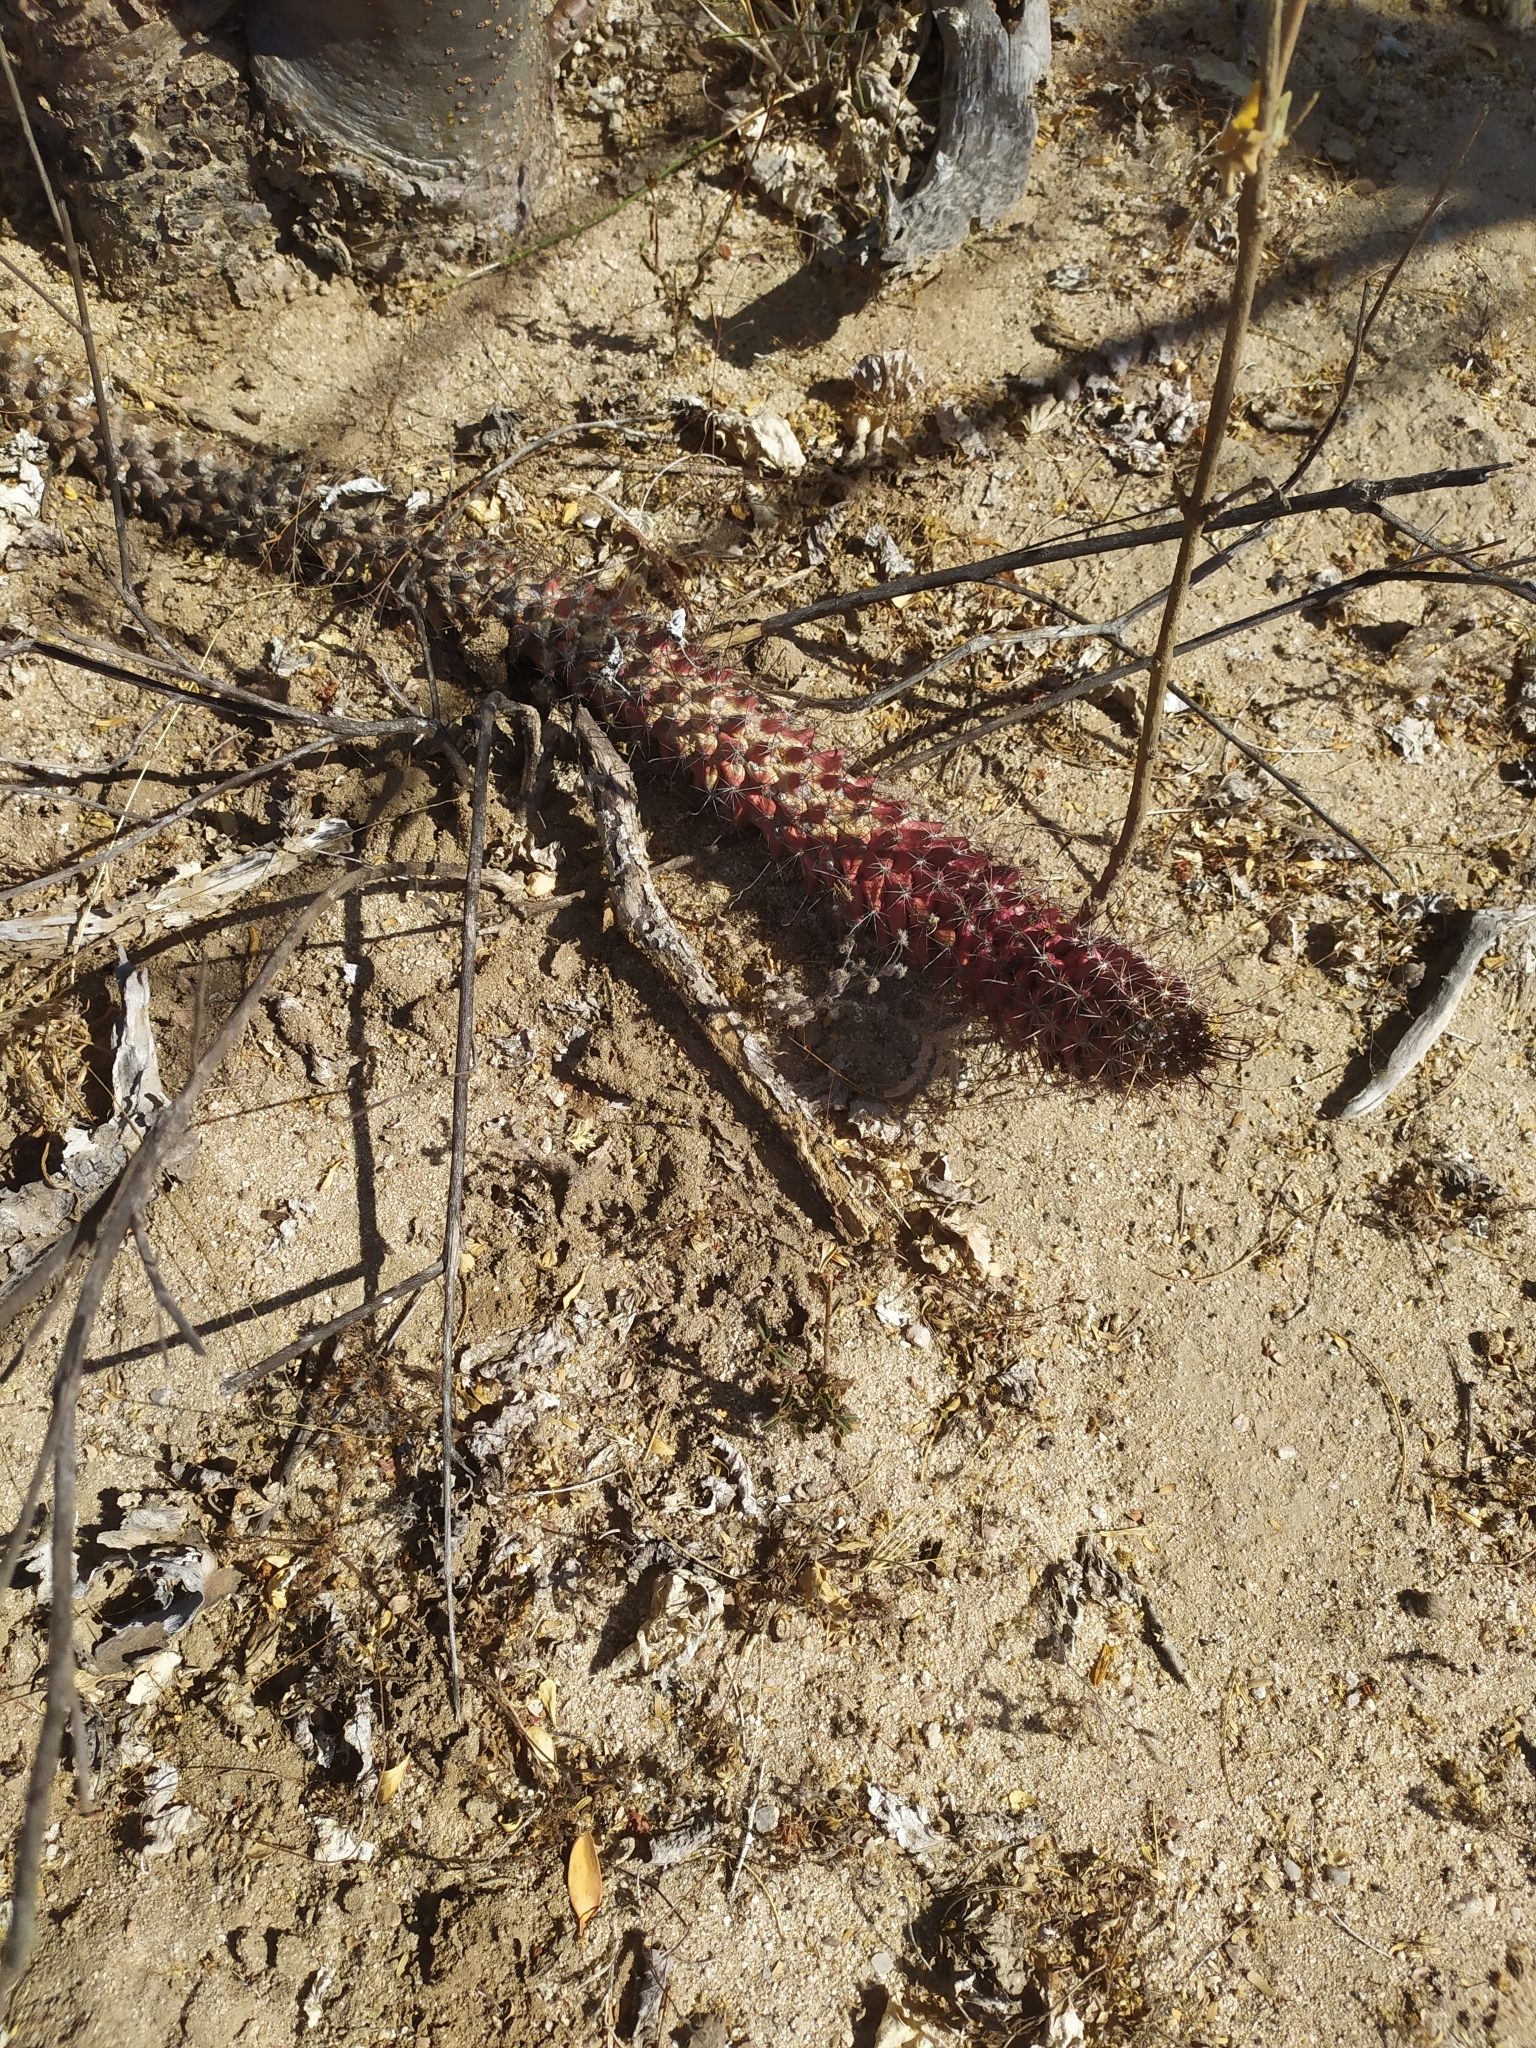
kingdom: Plantae
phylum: Tracheophyta
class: Magnoliopsida
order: Caryophyllales
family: Cactaceae
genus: Cochemiea
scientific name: Cochemiea poselgeri
